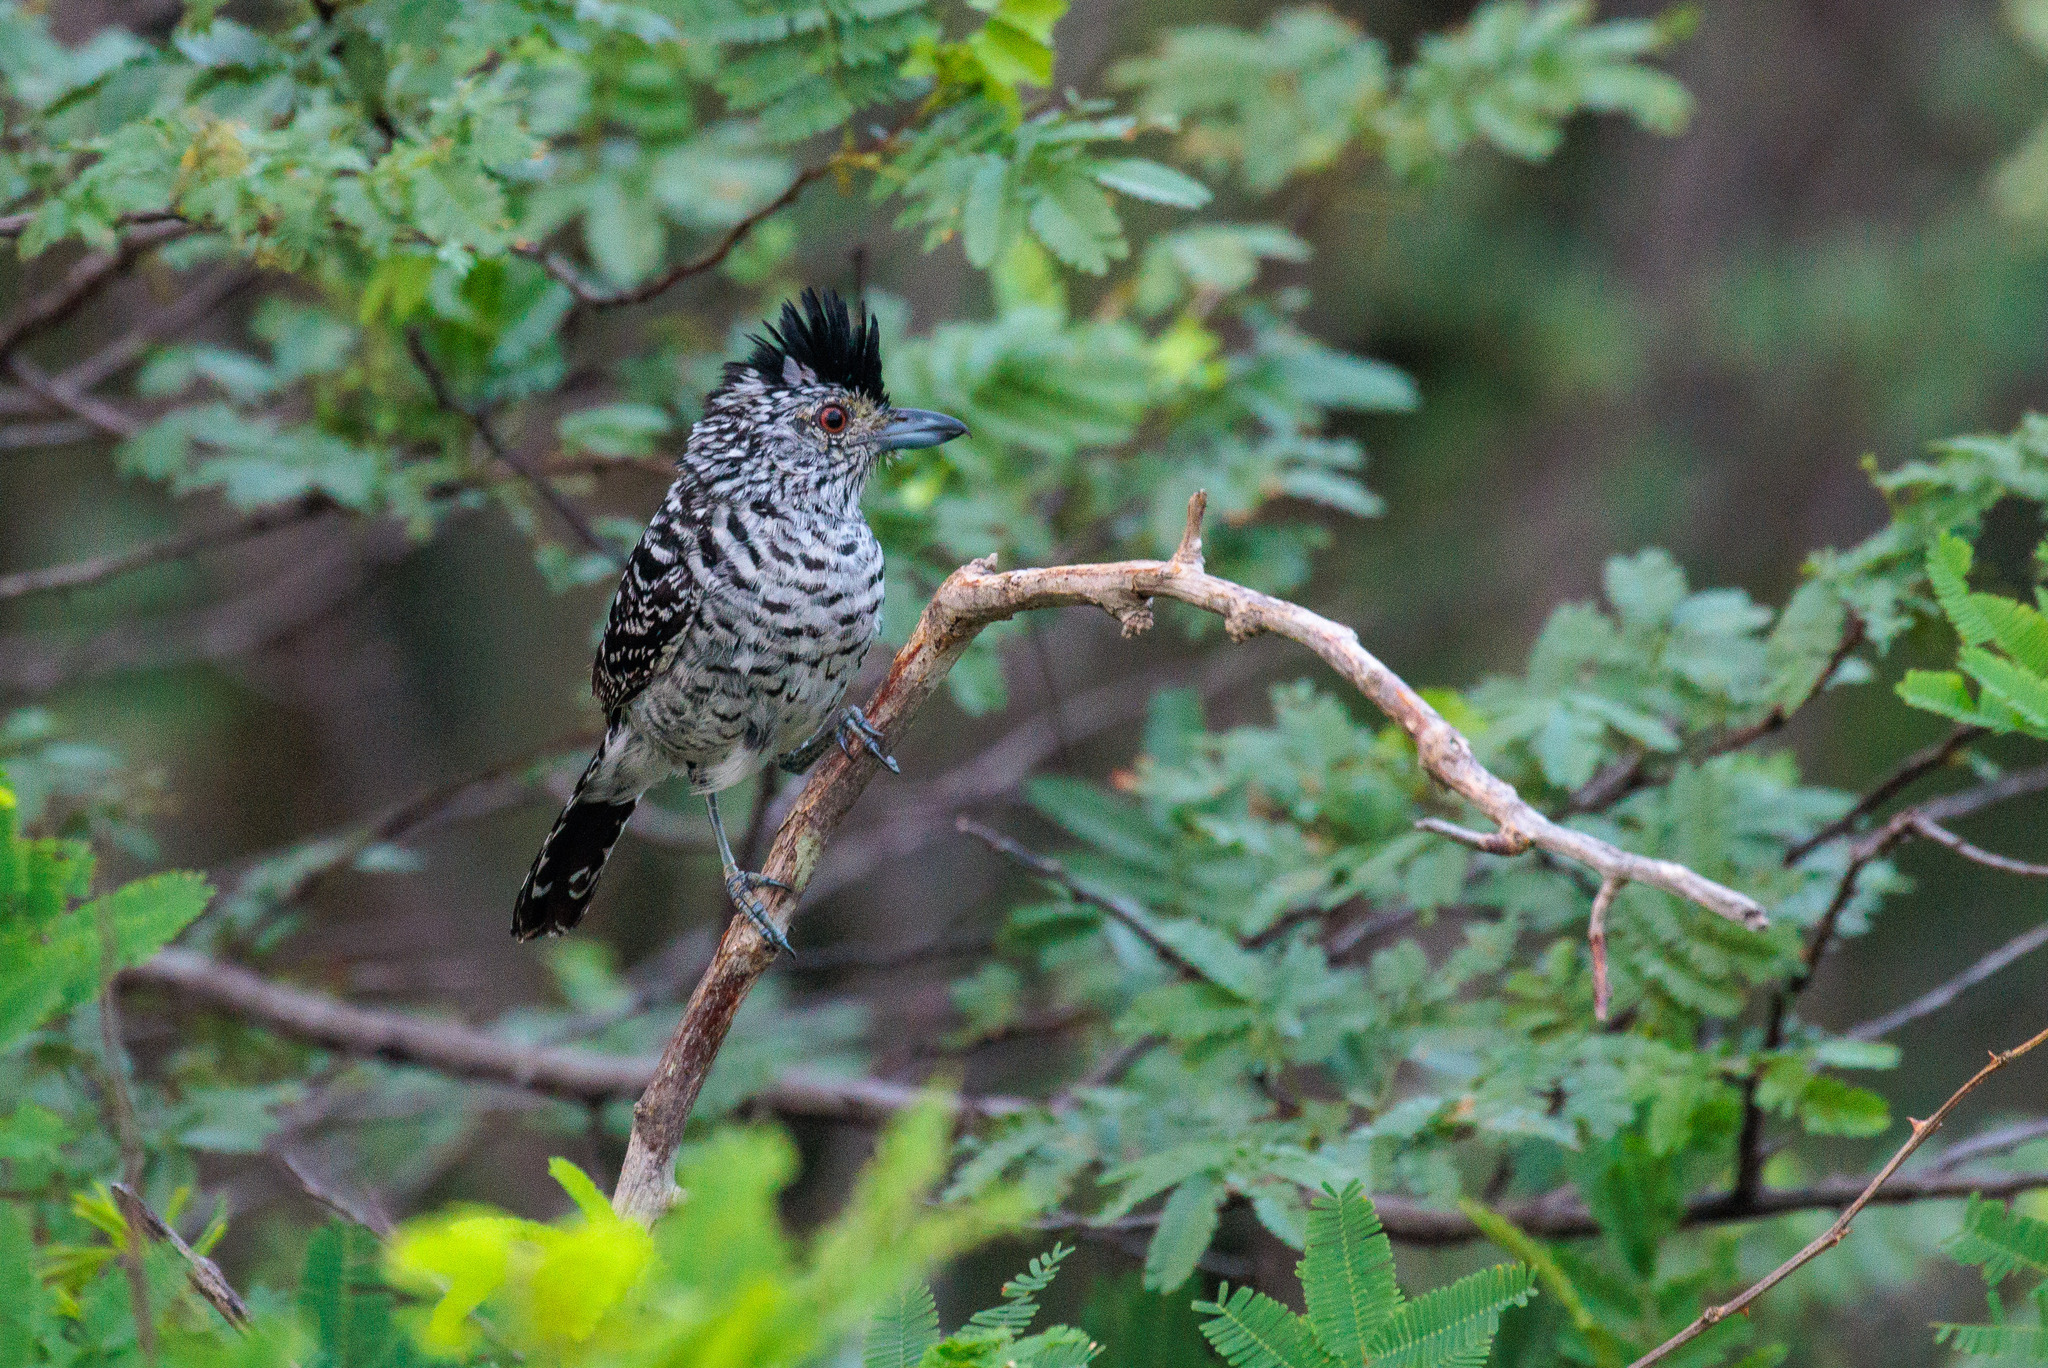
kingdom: Animalia
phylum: Chordata
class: Aves
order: Passeriformes
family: Thamnophilidae
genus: Thamnophilus
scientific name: Thamnophilus doliatus
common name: Barred antshrike
